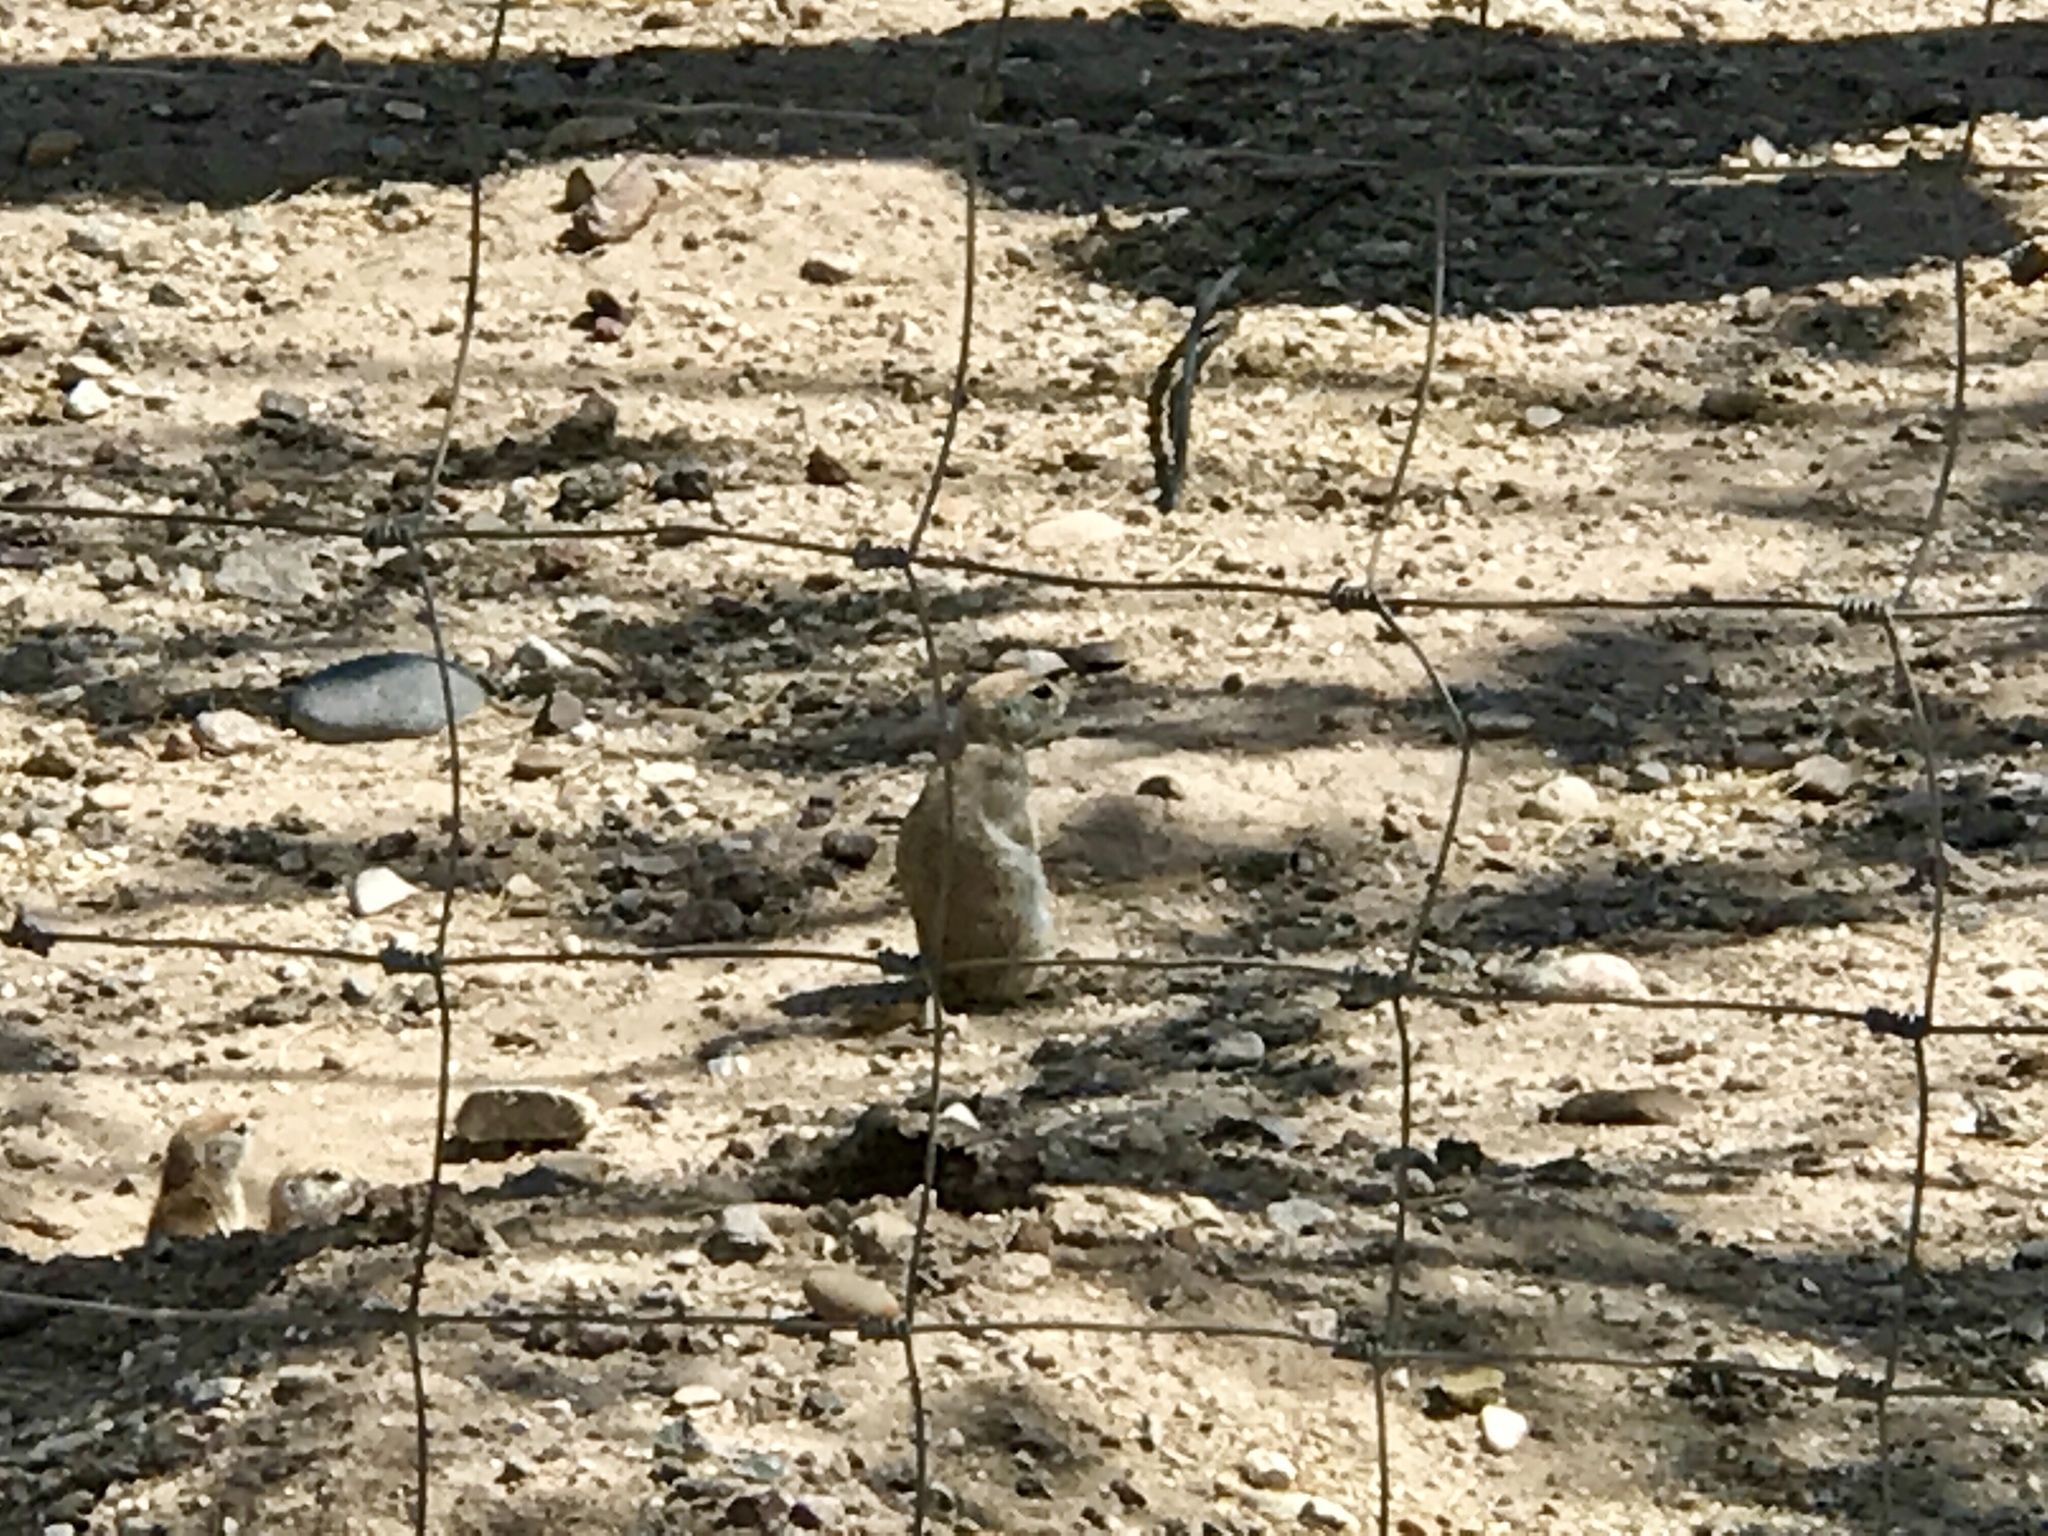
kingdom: Animalia
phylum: Chordata
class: Mammalia
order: Rodentia
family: Sciuridae
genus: Xerospermophilus
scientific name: Xerospermophilus tereticaudus
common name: Round-tailed ground squirrel
